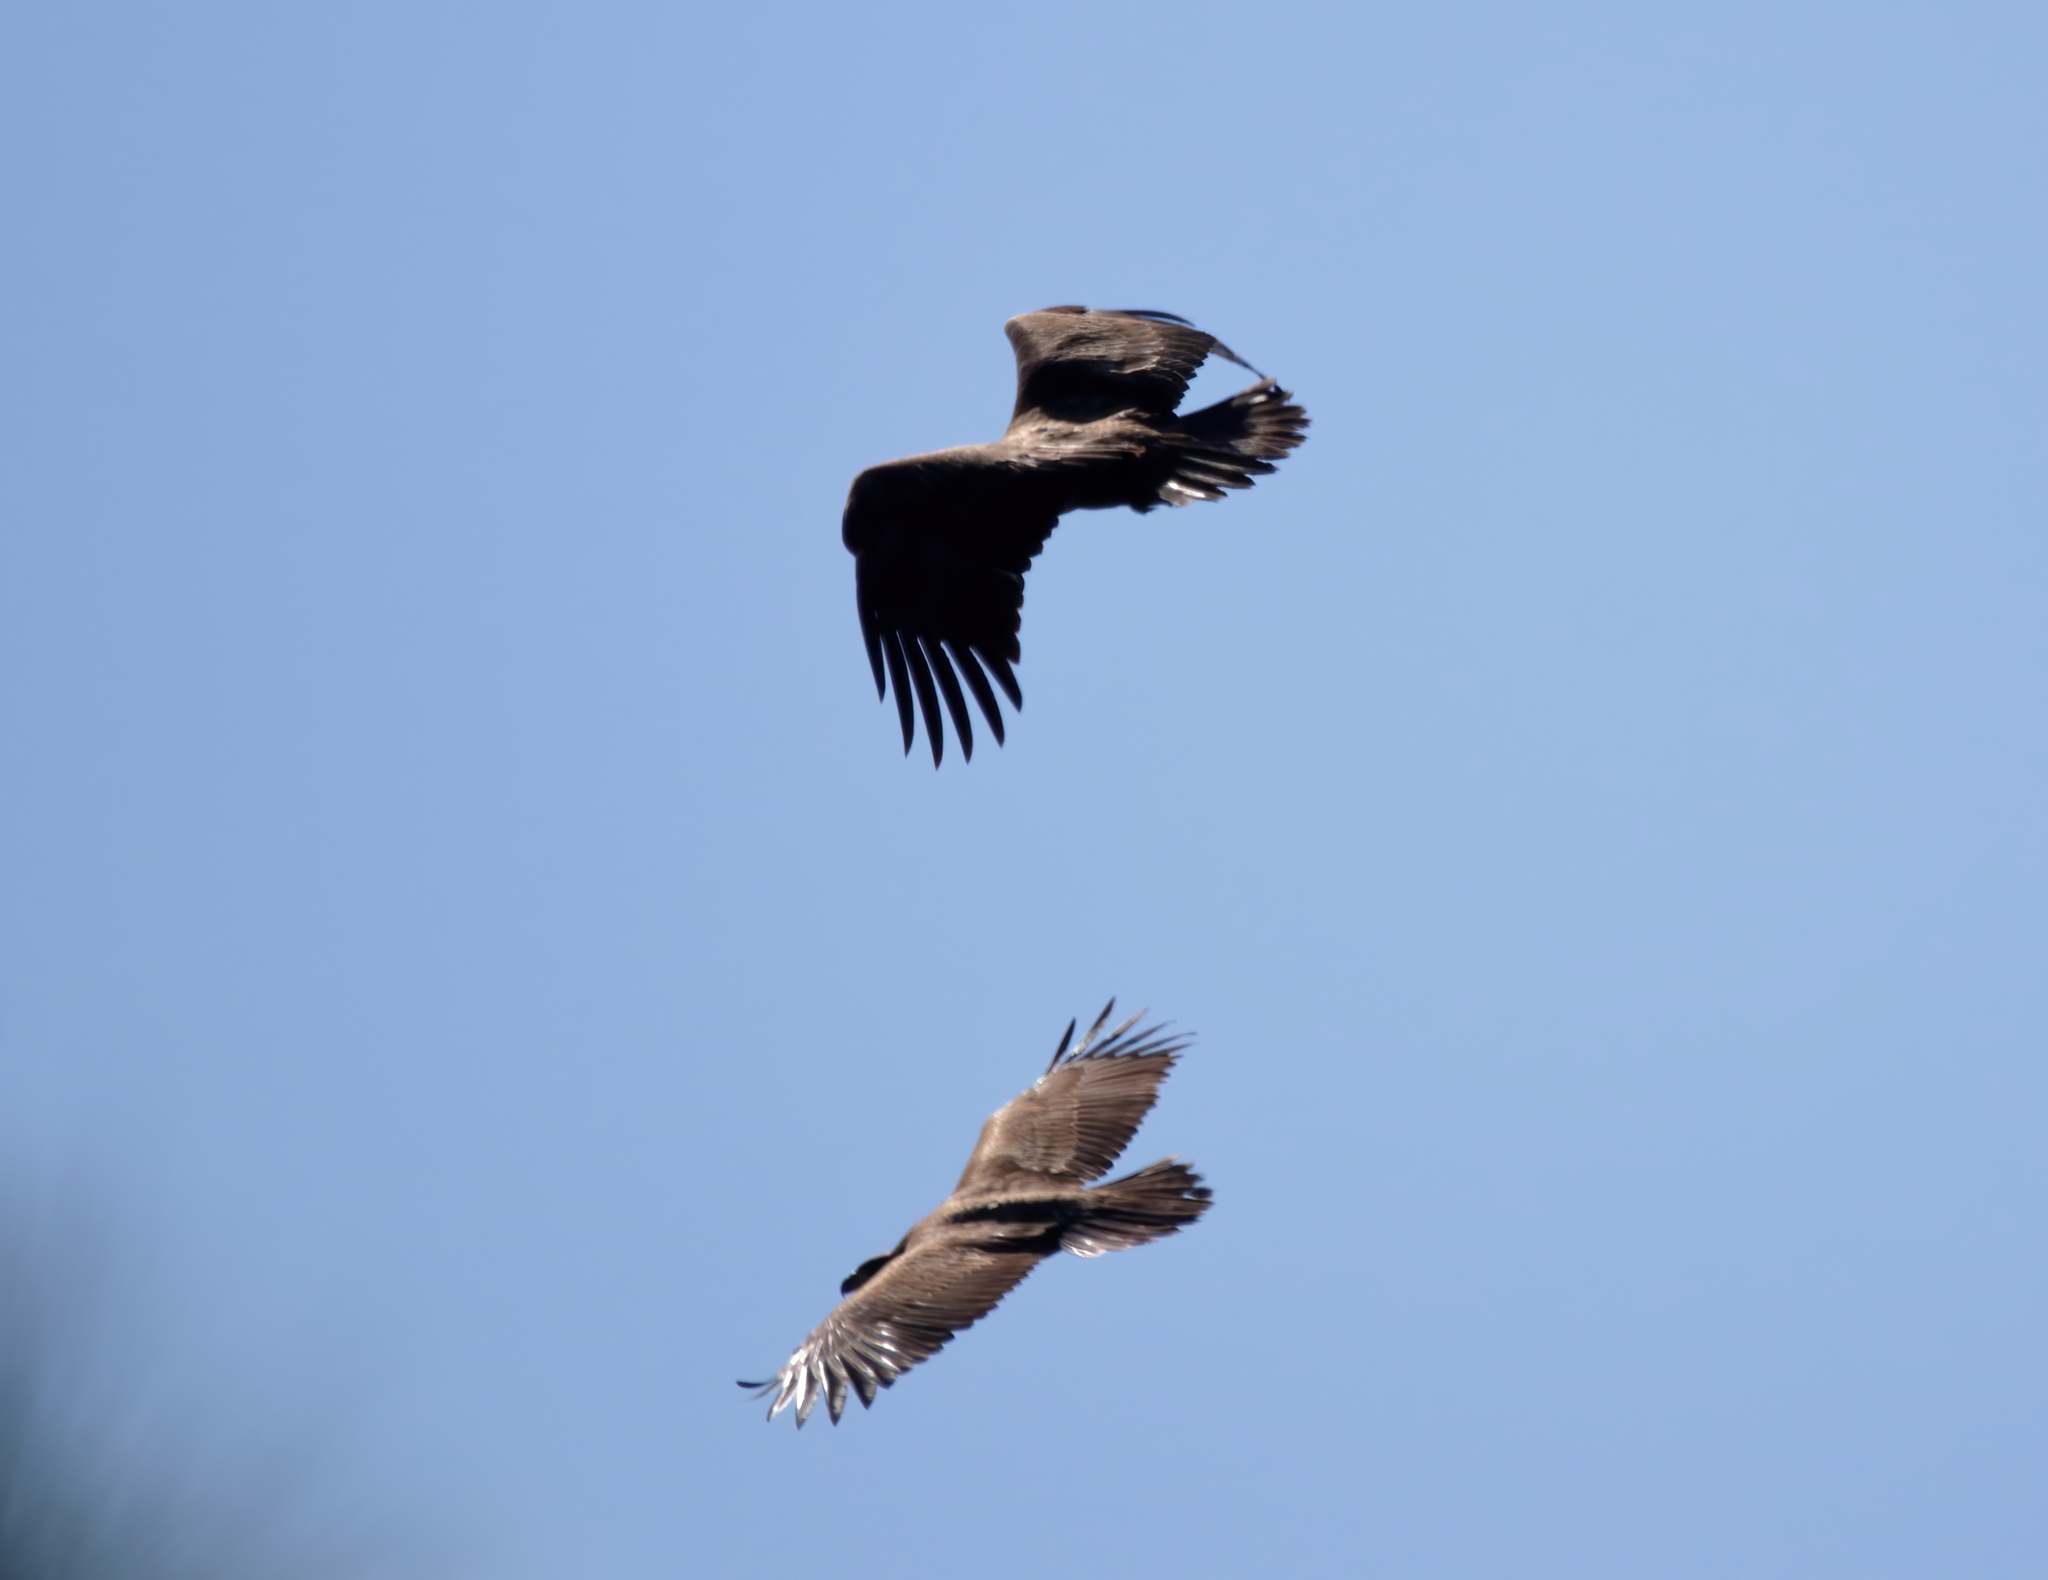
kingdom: Animalia
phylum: Chordata
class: Aves
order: Accipitriformes
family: Accipitridae
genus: Haliaeetus
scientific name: Haliaeetus leucocephalus
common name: Bald eagle
